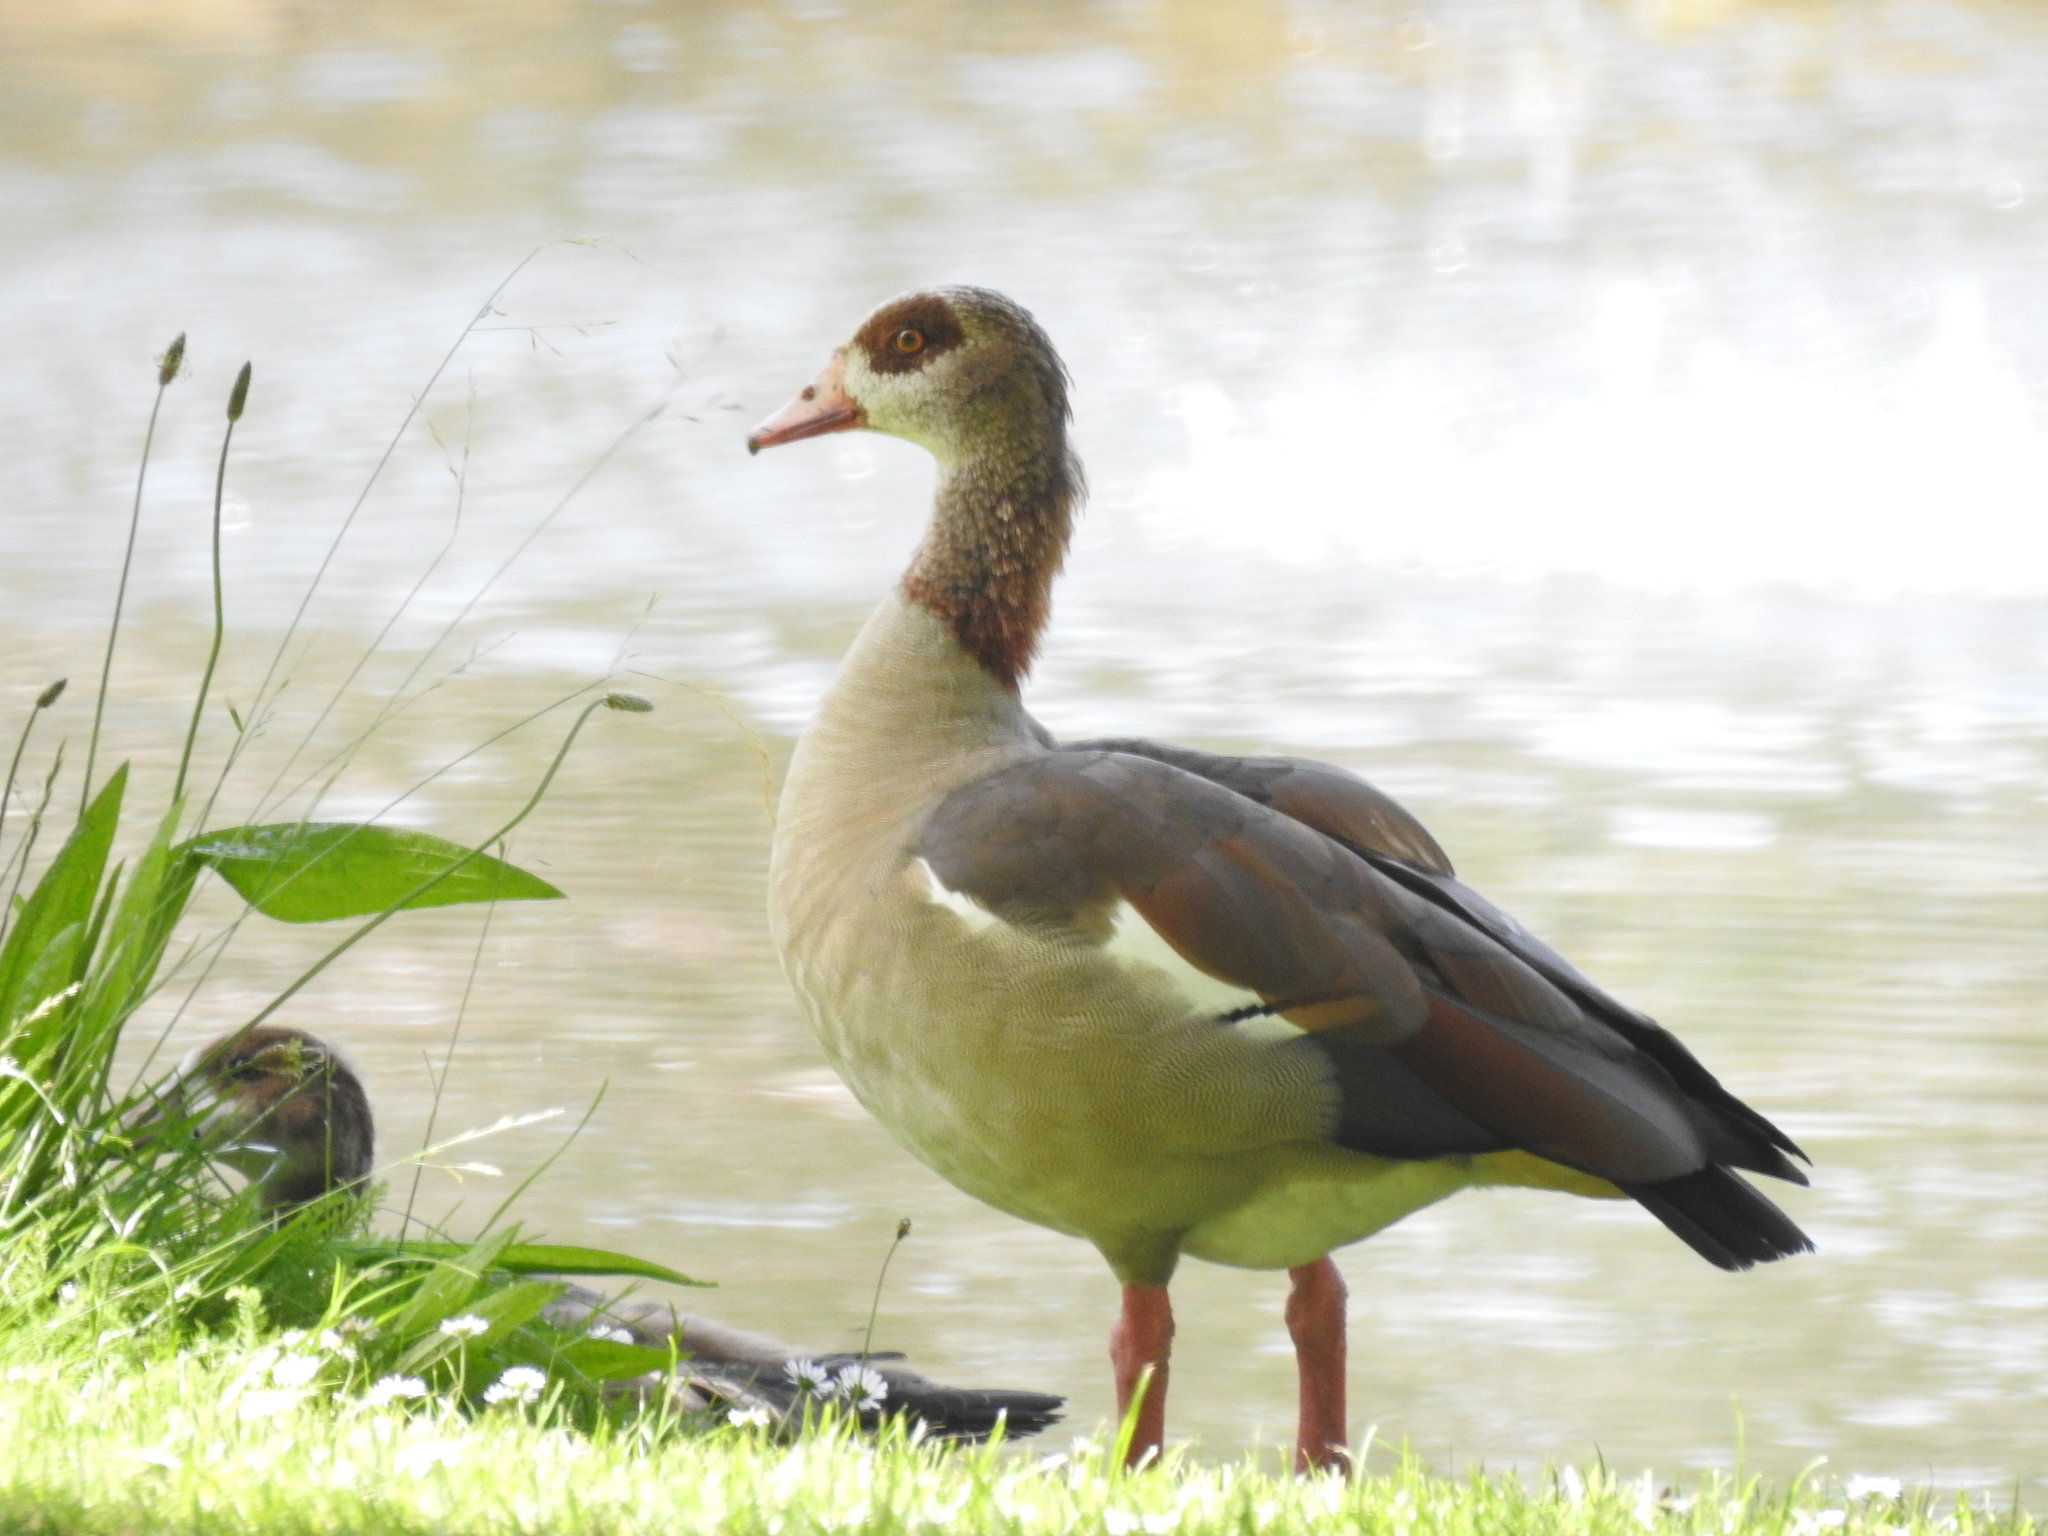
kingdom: Animalia
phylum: Chordata
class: Aves
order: Anseriformes
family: Anatidae
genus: Alopochen
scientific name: Alopochen aegyptiaca
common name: Egyptian goose
